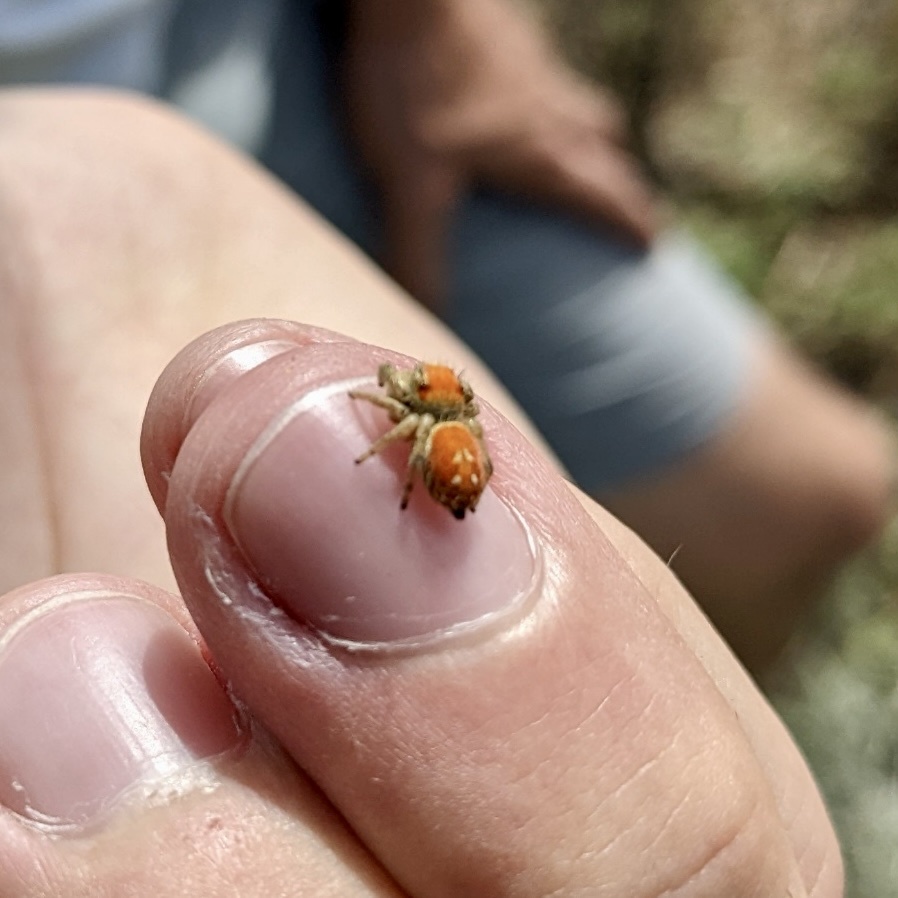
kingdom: Animalia
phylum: Arthropoda
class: Arachnida
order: Araneae
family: Salticidae
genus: Phidippus
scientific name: Phidippus apacheanus
